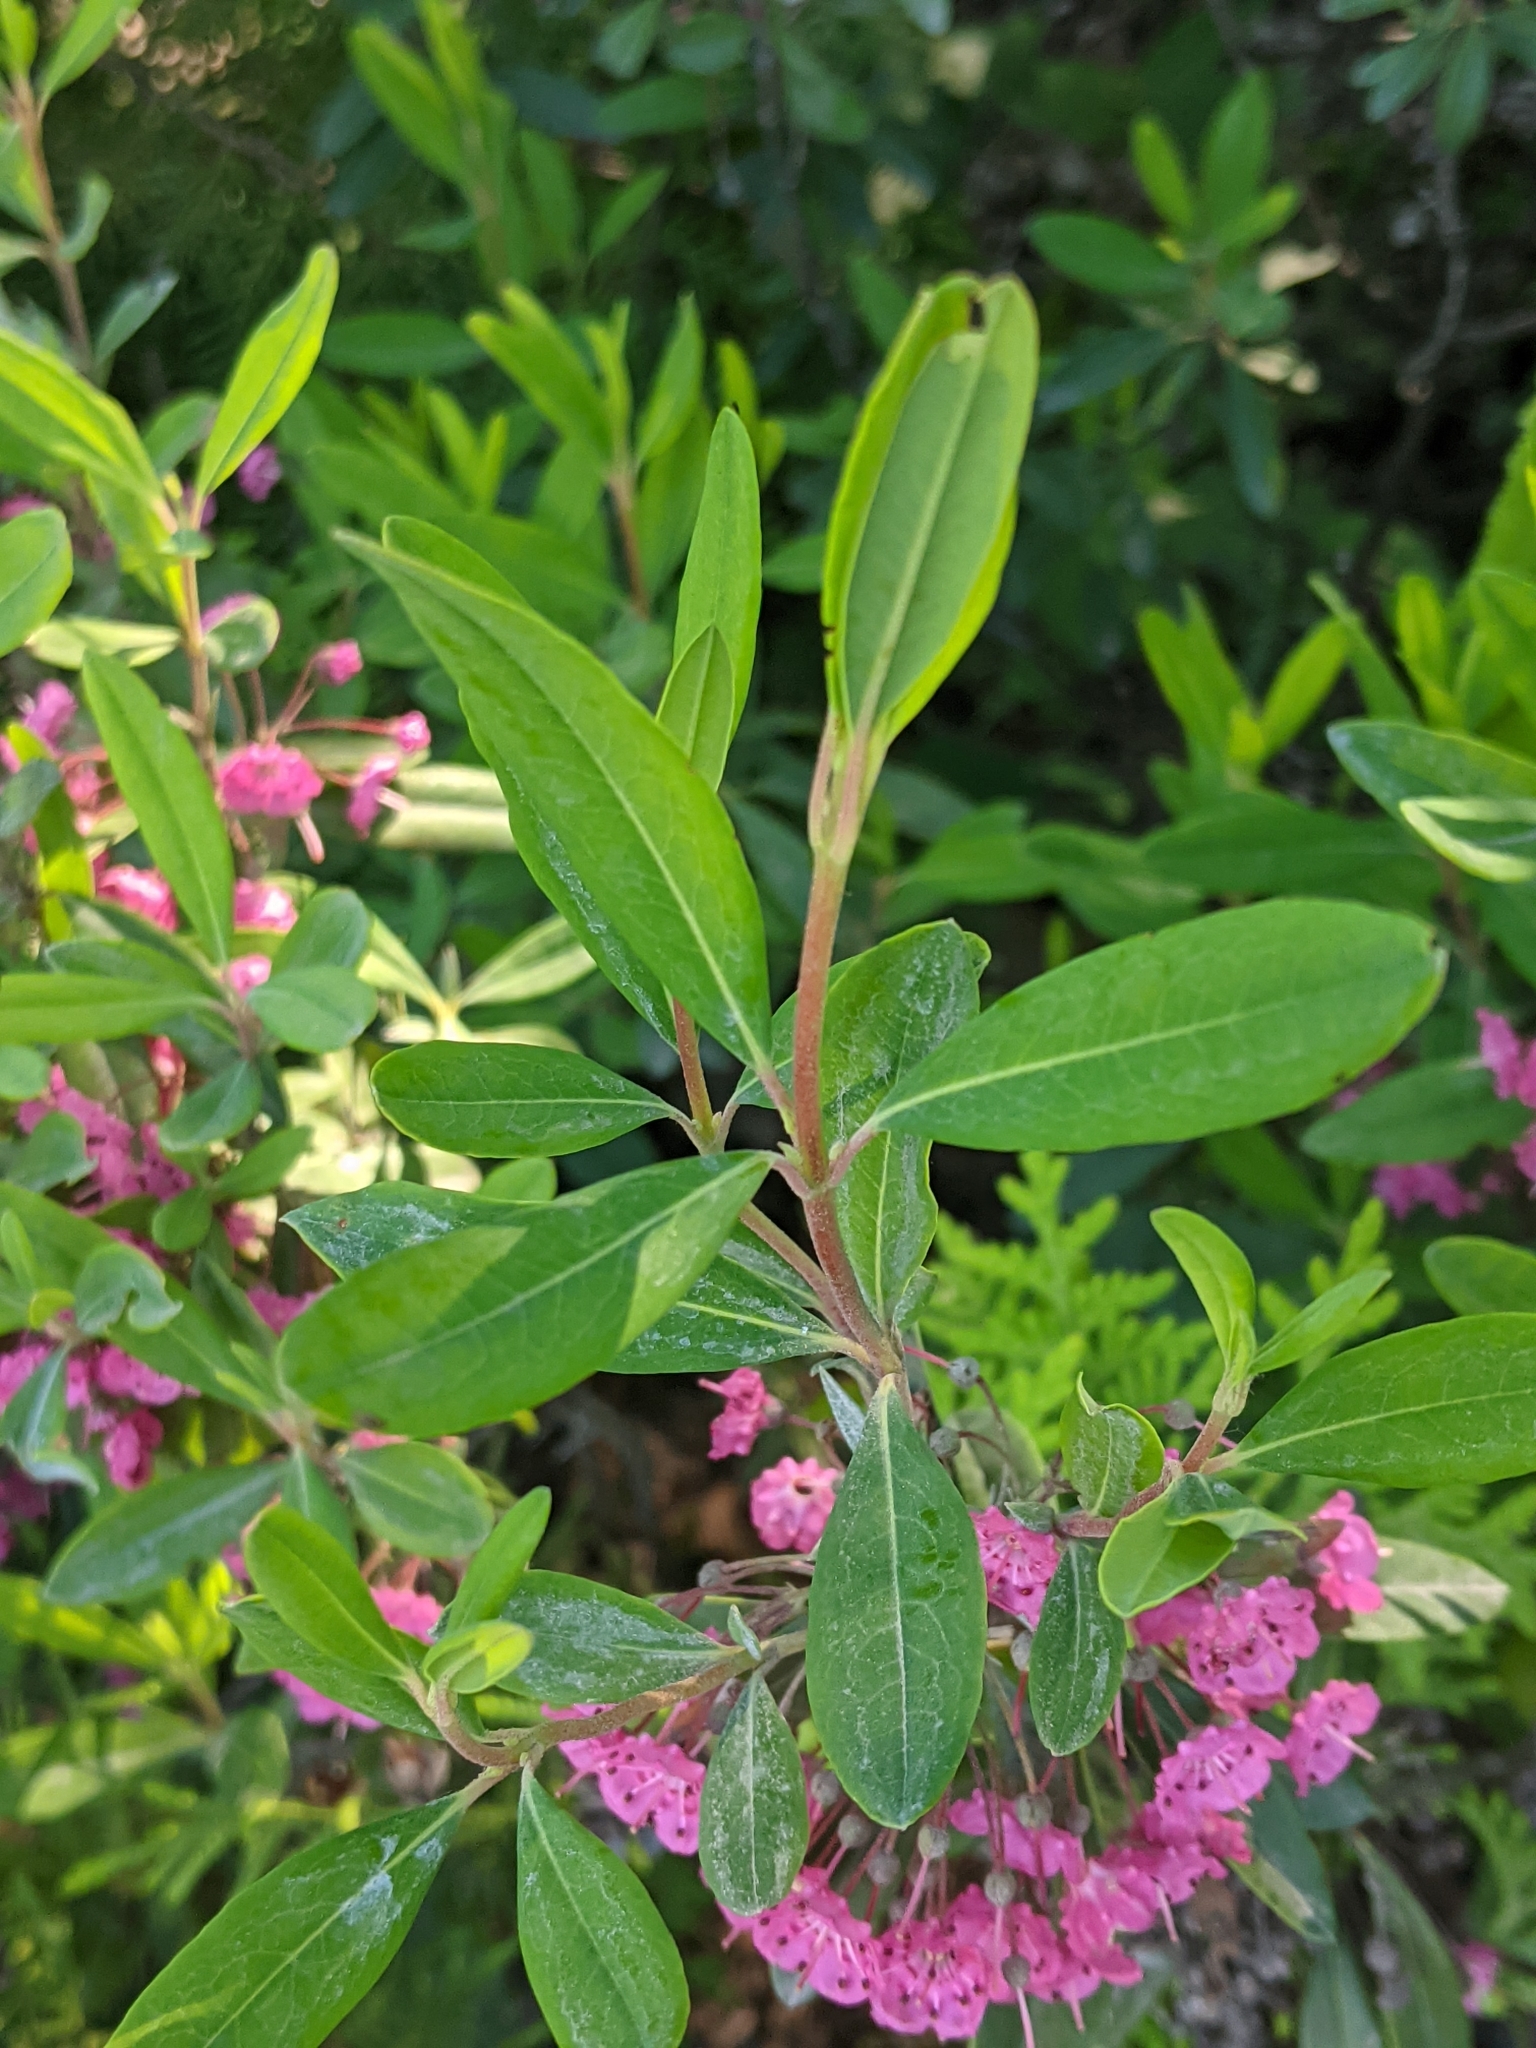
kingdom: Plantae
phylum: Tracheophyta
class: Magnoliopsida
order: Ericales
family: Ericaceae
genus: Kalmia
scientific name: Kalmia angustifolia
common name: Sheep-laurel
